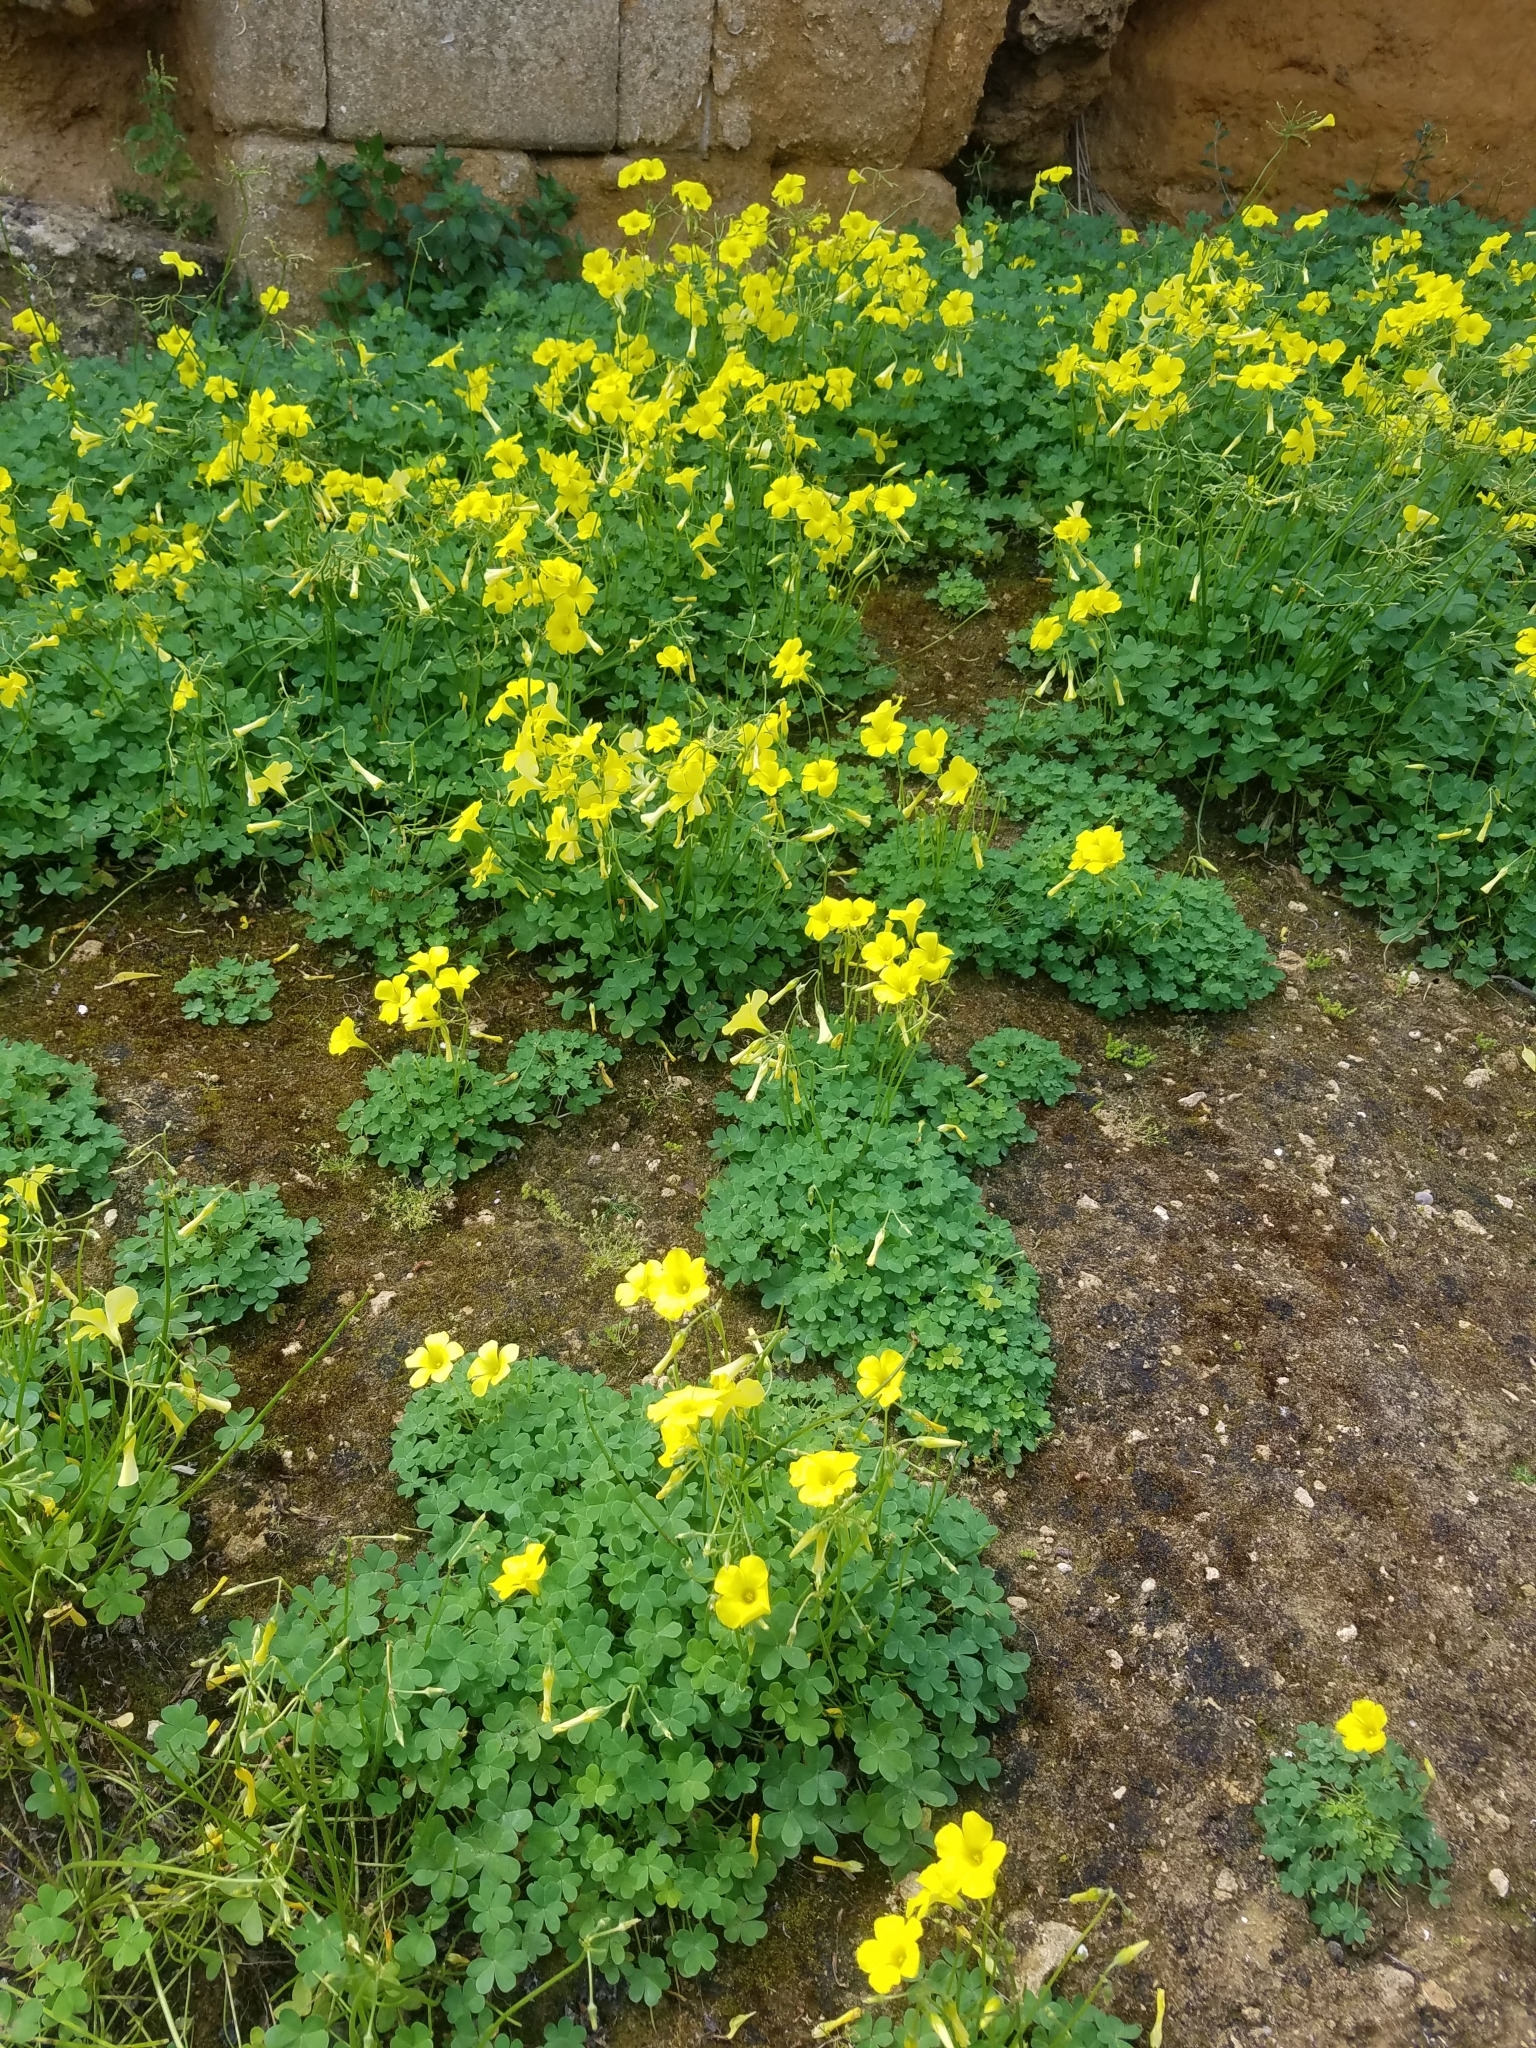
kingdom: Plantae
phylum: Tracheophyta
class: Magnoliopsida
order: Oxalidales
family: Oxalidaceae
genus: Oxalis
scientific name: Oxalis pes-caprae
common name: Bermuda-buttercup
